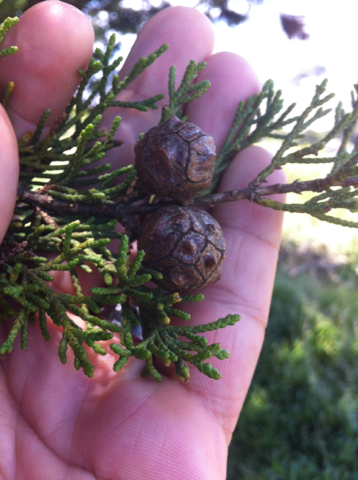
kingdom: Plantae
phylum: Tracheophyta
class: Pinopsida
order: Pinales
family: Cupressaceae
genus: Cupressus
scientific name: Cupressus macrocarpa
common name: Monterey cypress
